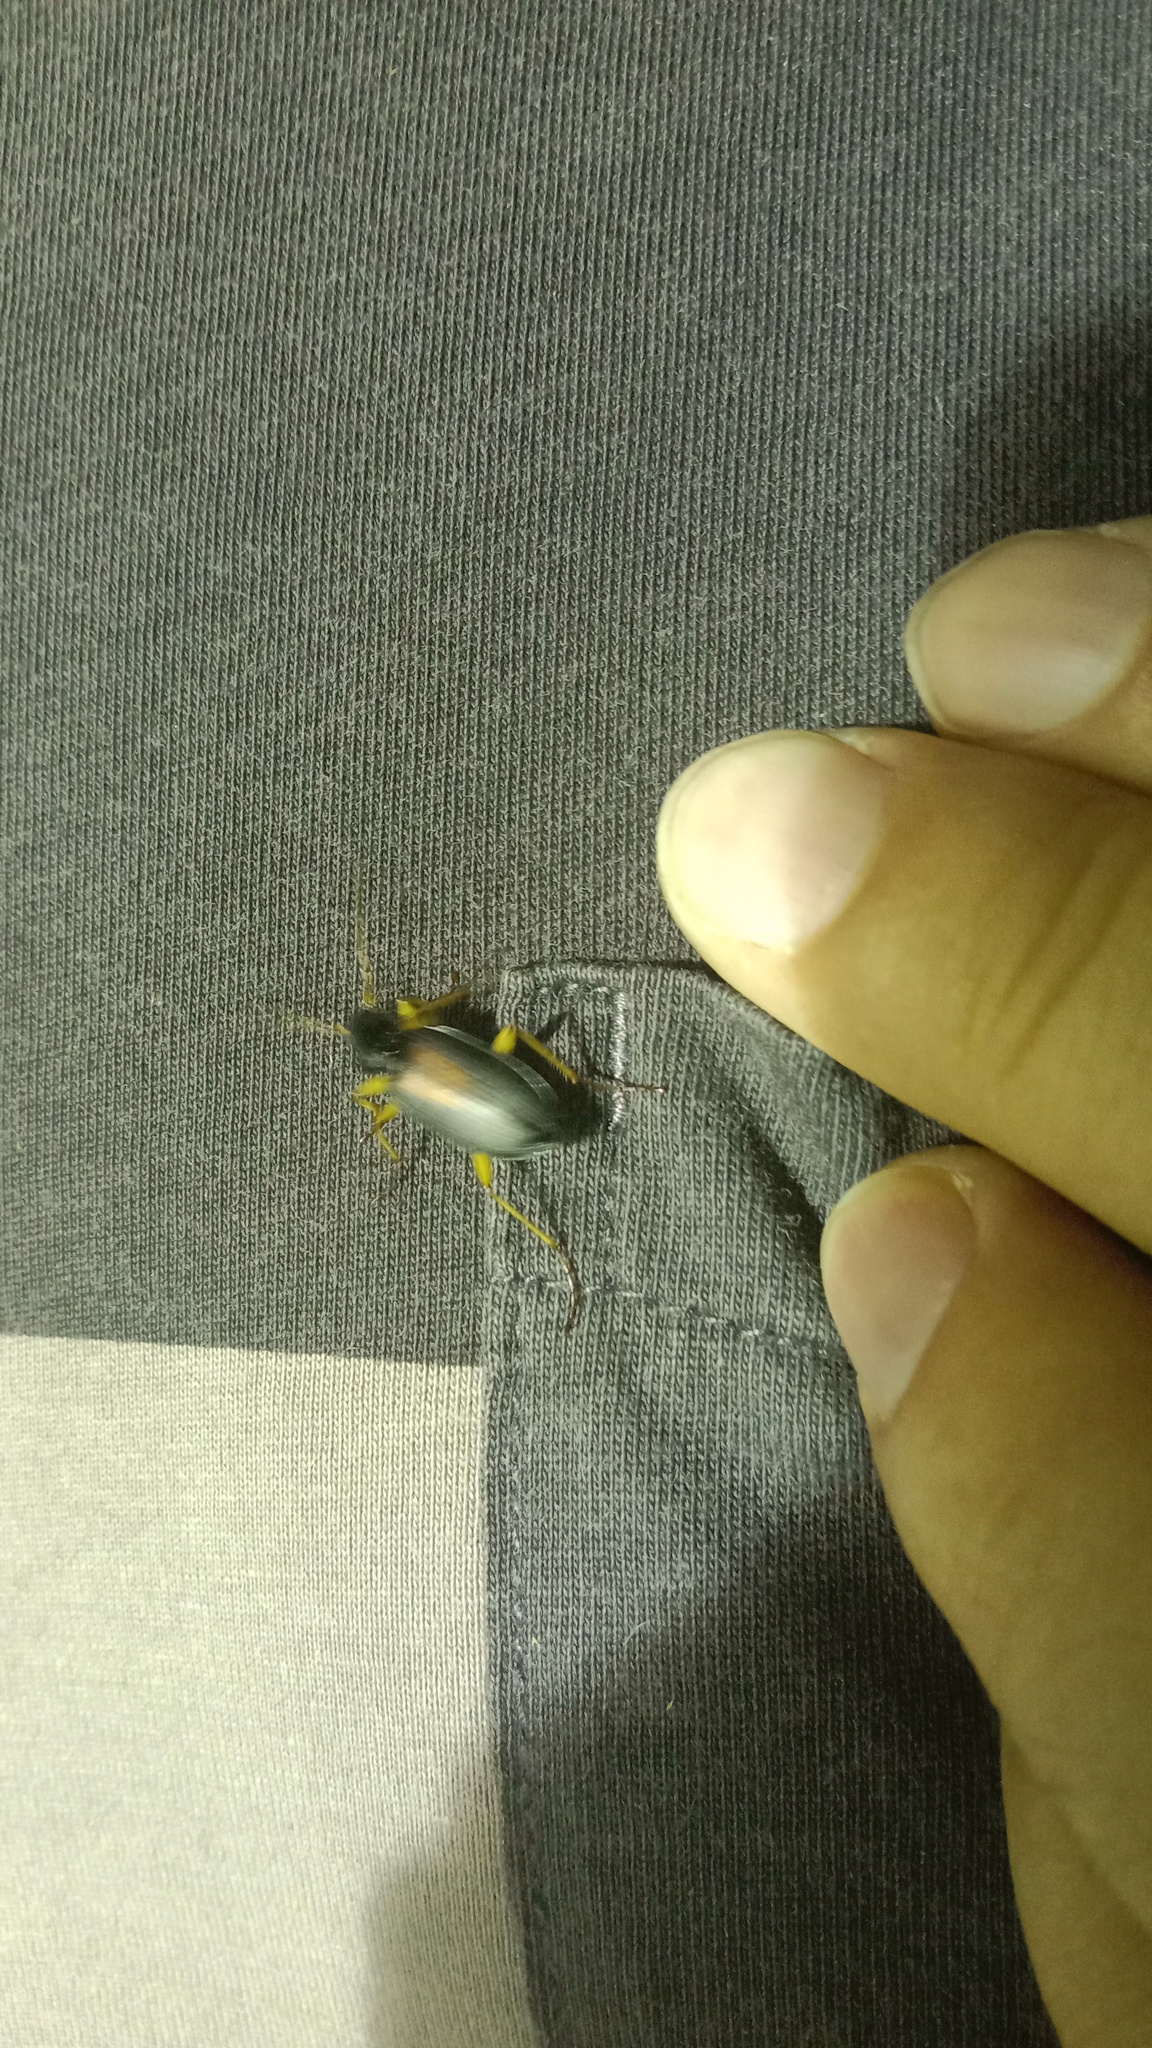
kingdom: Animalia
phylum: Arthropoda
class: Insecta
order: Coleoptera
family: Carabidae
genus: Dolichus
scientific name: Dolichus halensis
